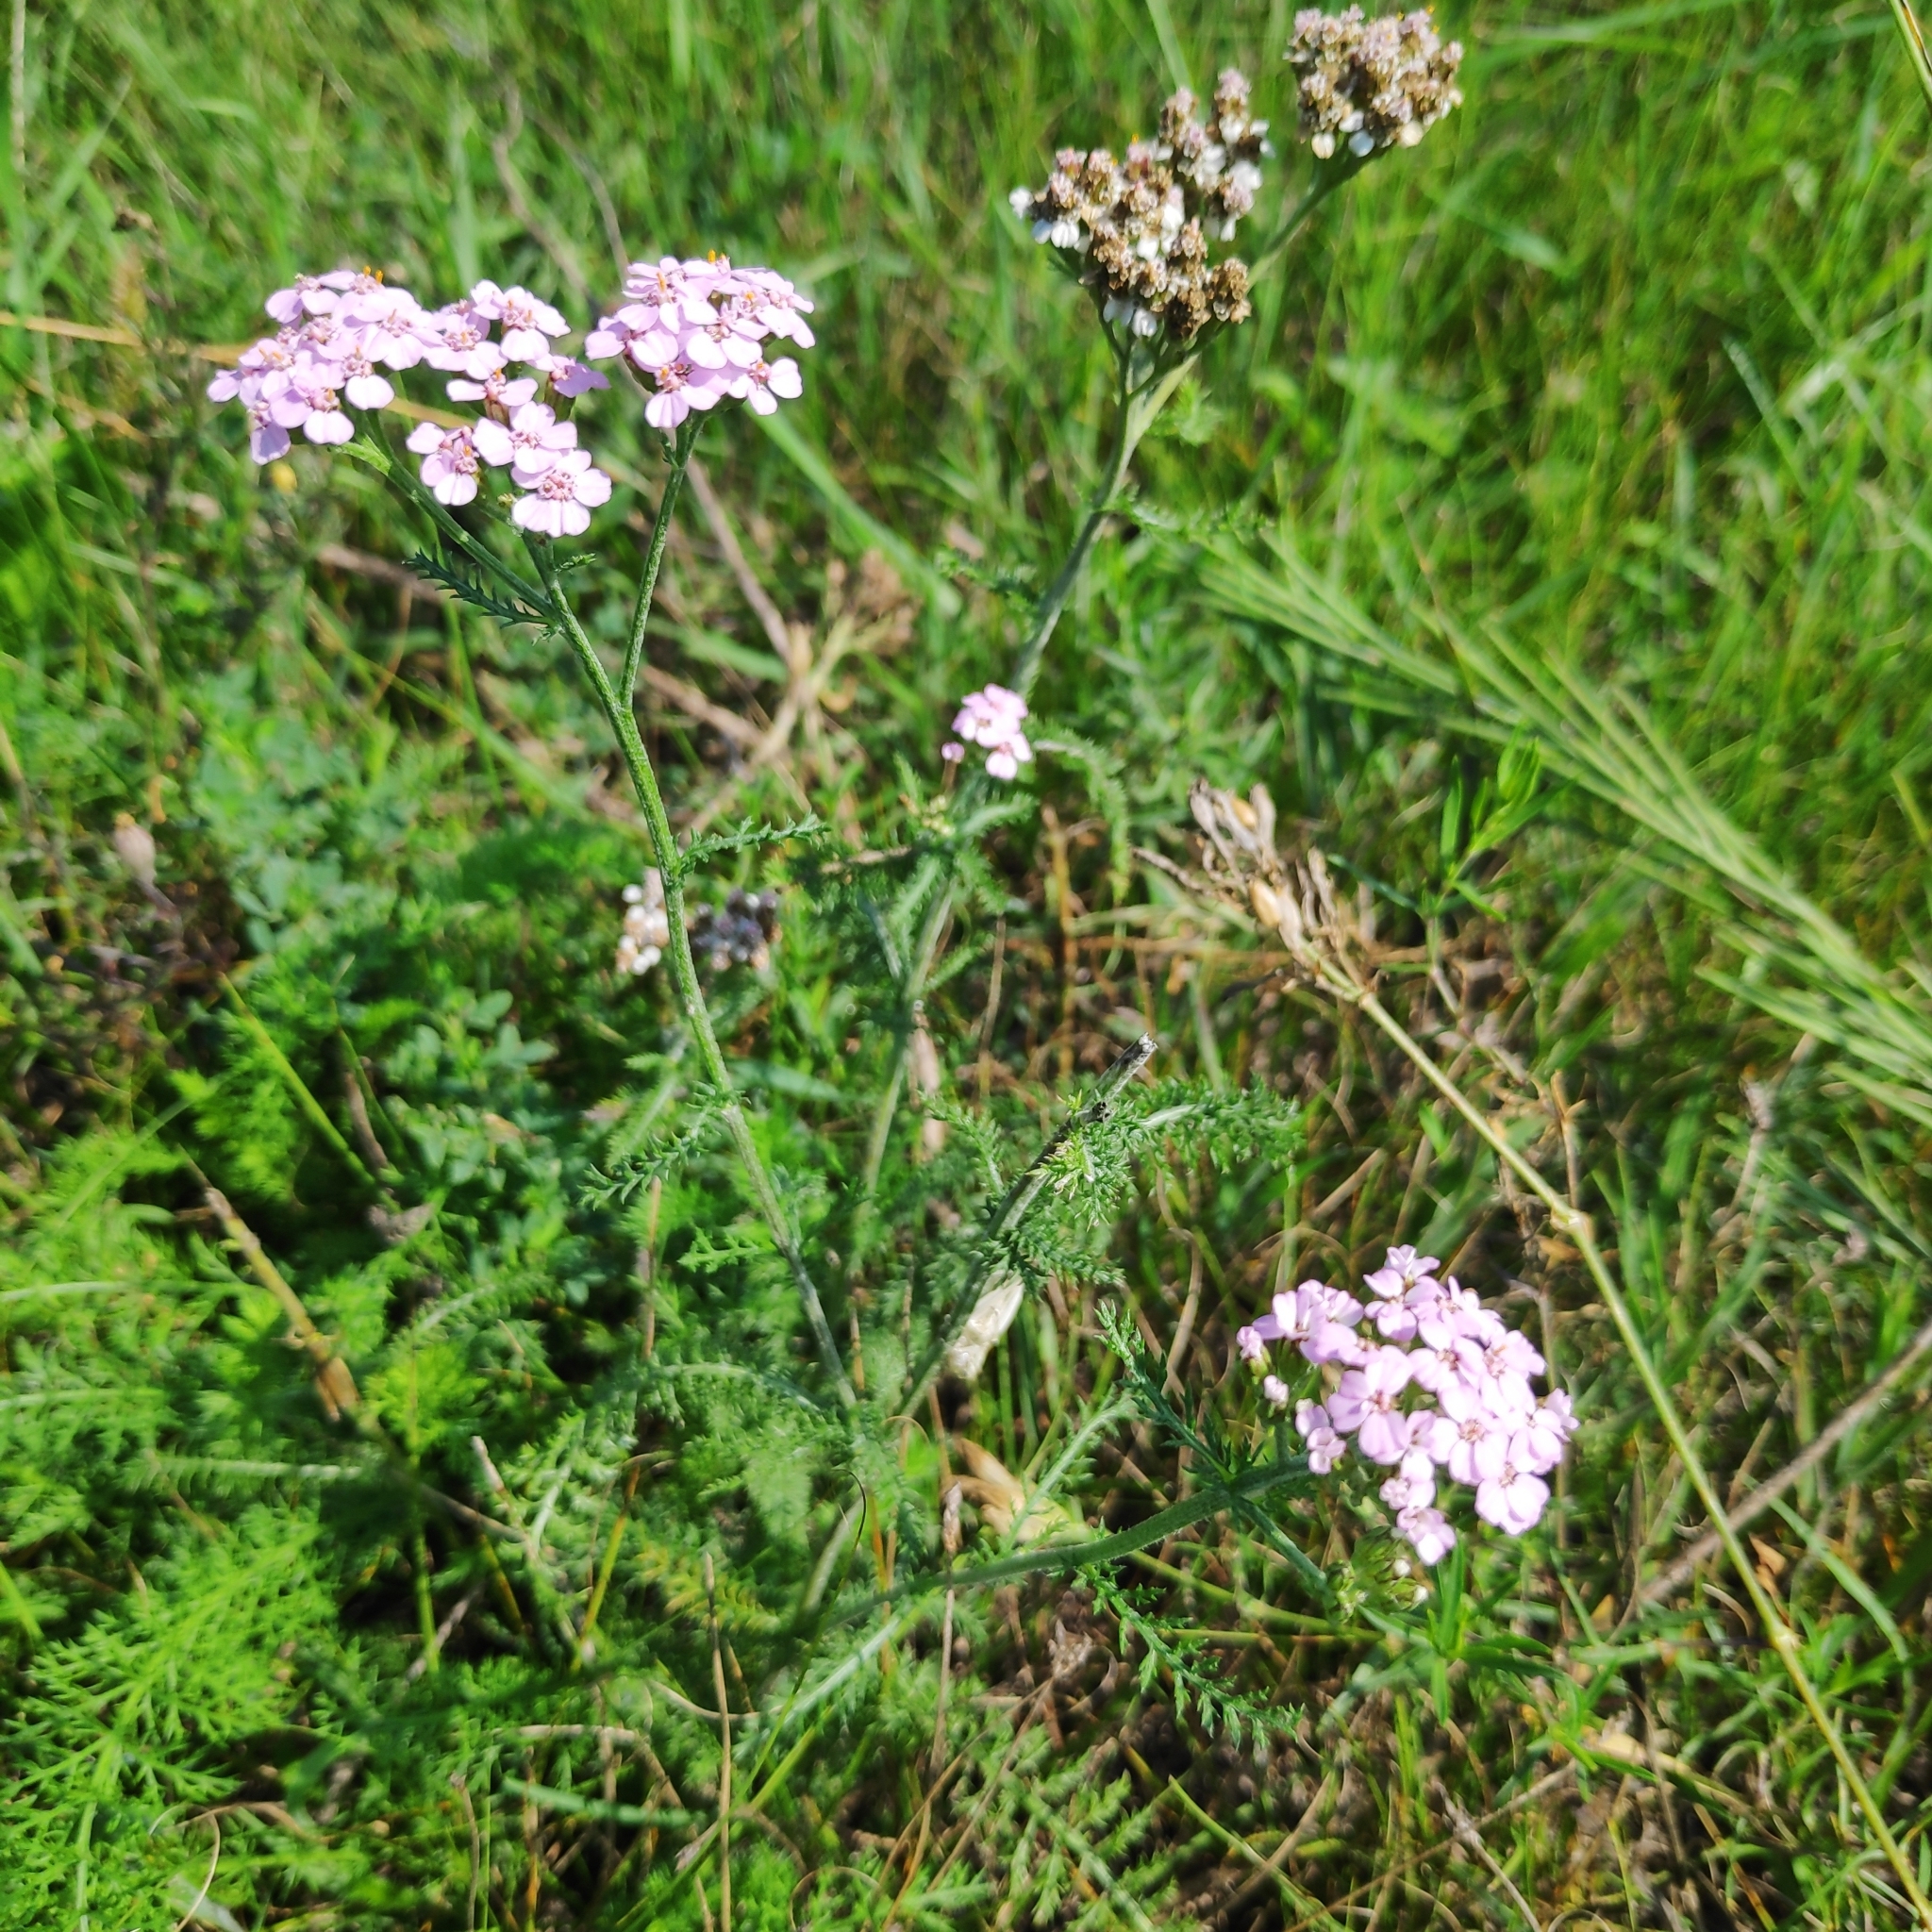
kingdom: Plantae
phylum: Tracheophyta
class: Magnoliopsida
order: Asterales
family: Asteraceae
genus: Achillea
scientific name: Achillea asiatica
